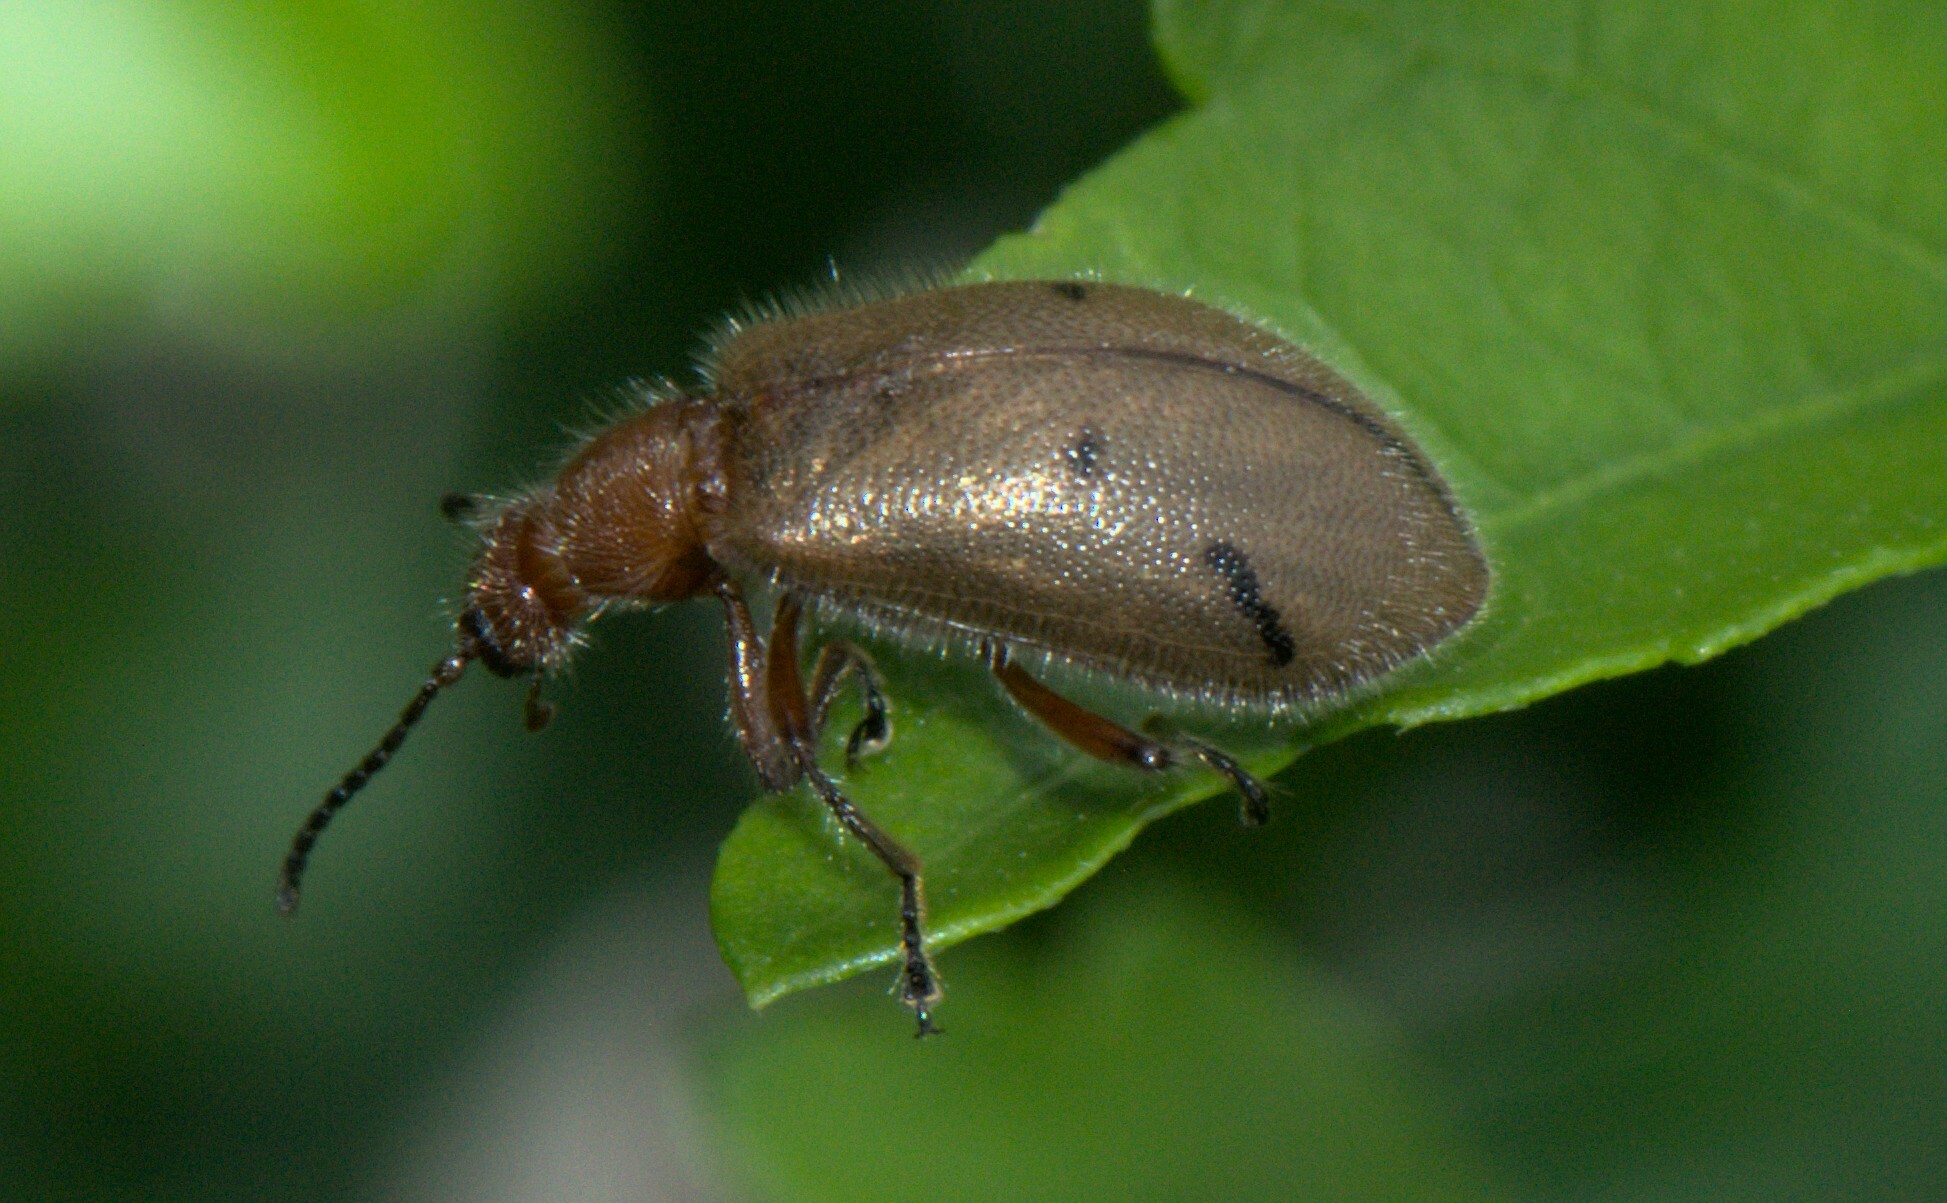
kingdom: Animalia
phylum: Arthropoda
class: Insecta
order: Coleoptera
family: Tenebrionidae
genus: Cerogria
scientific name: Cerogria
